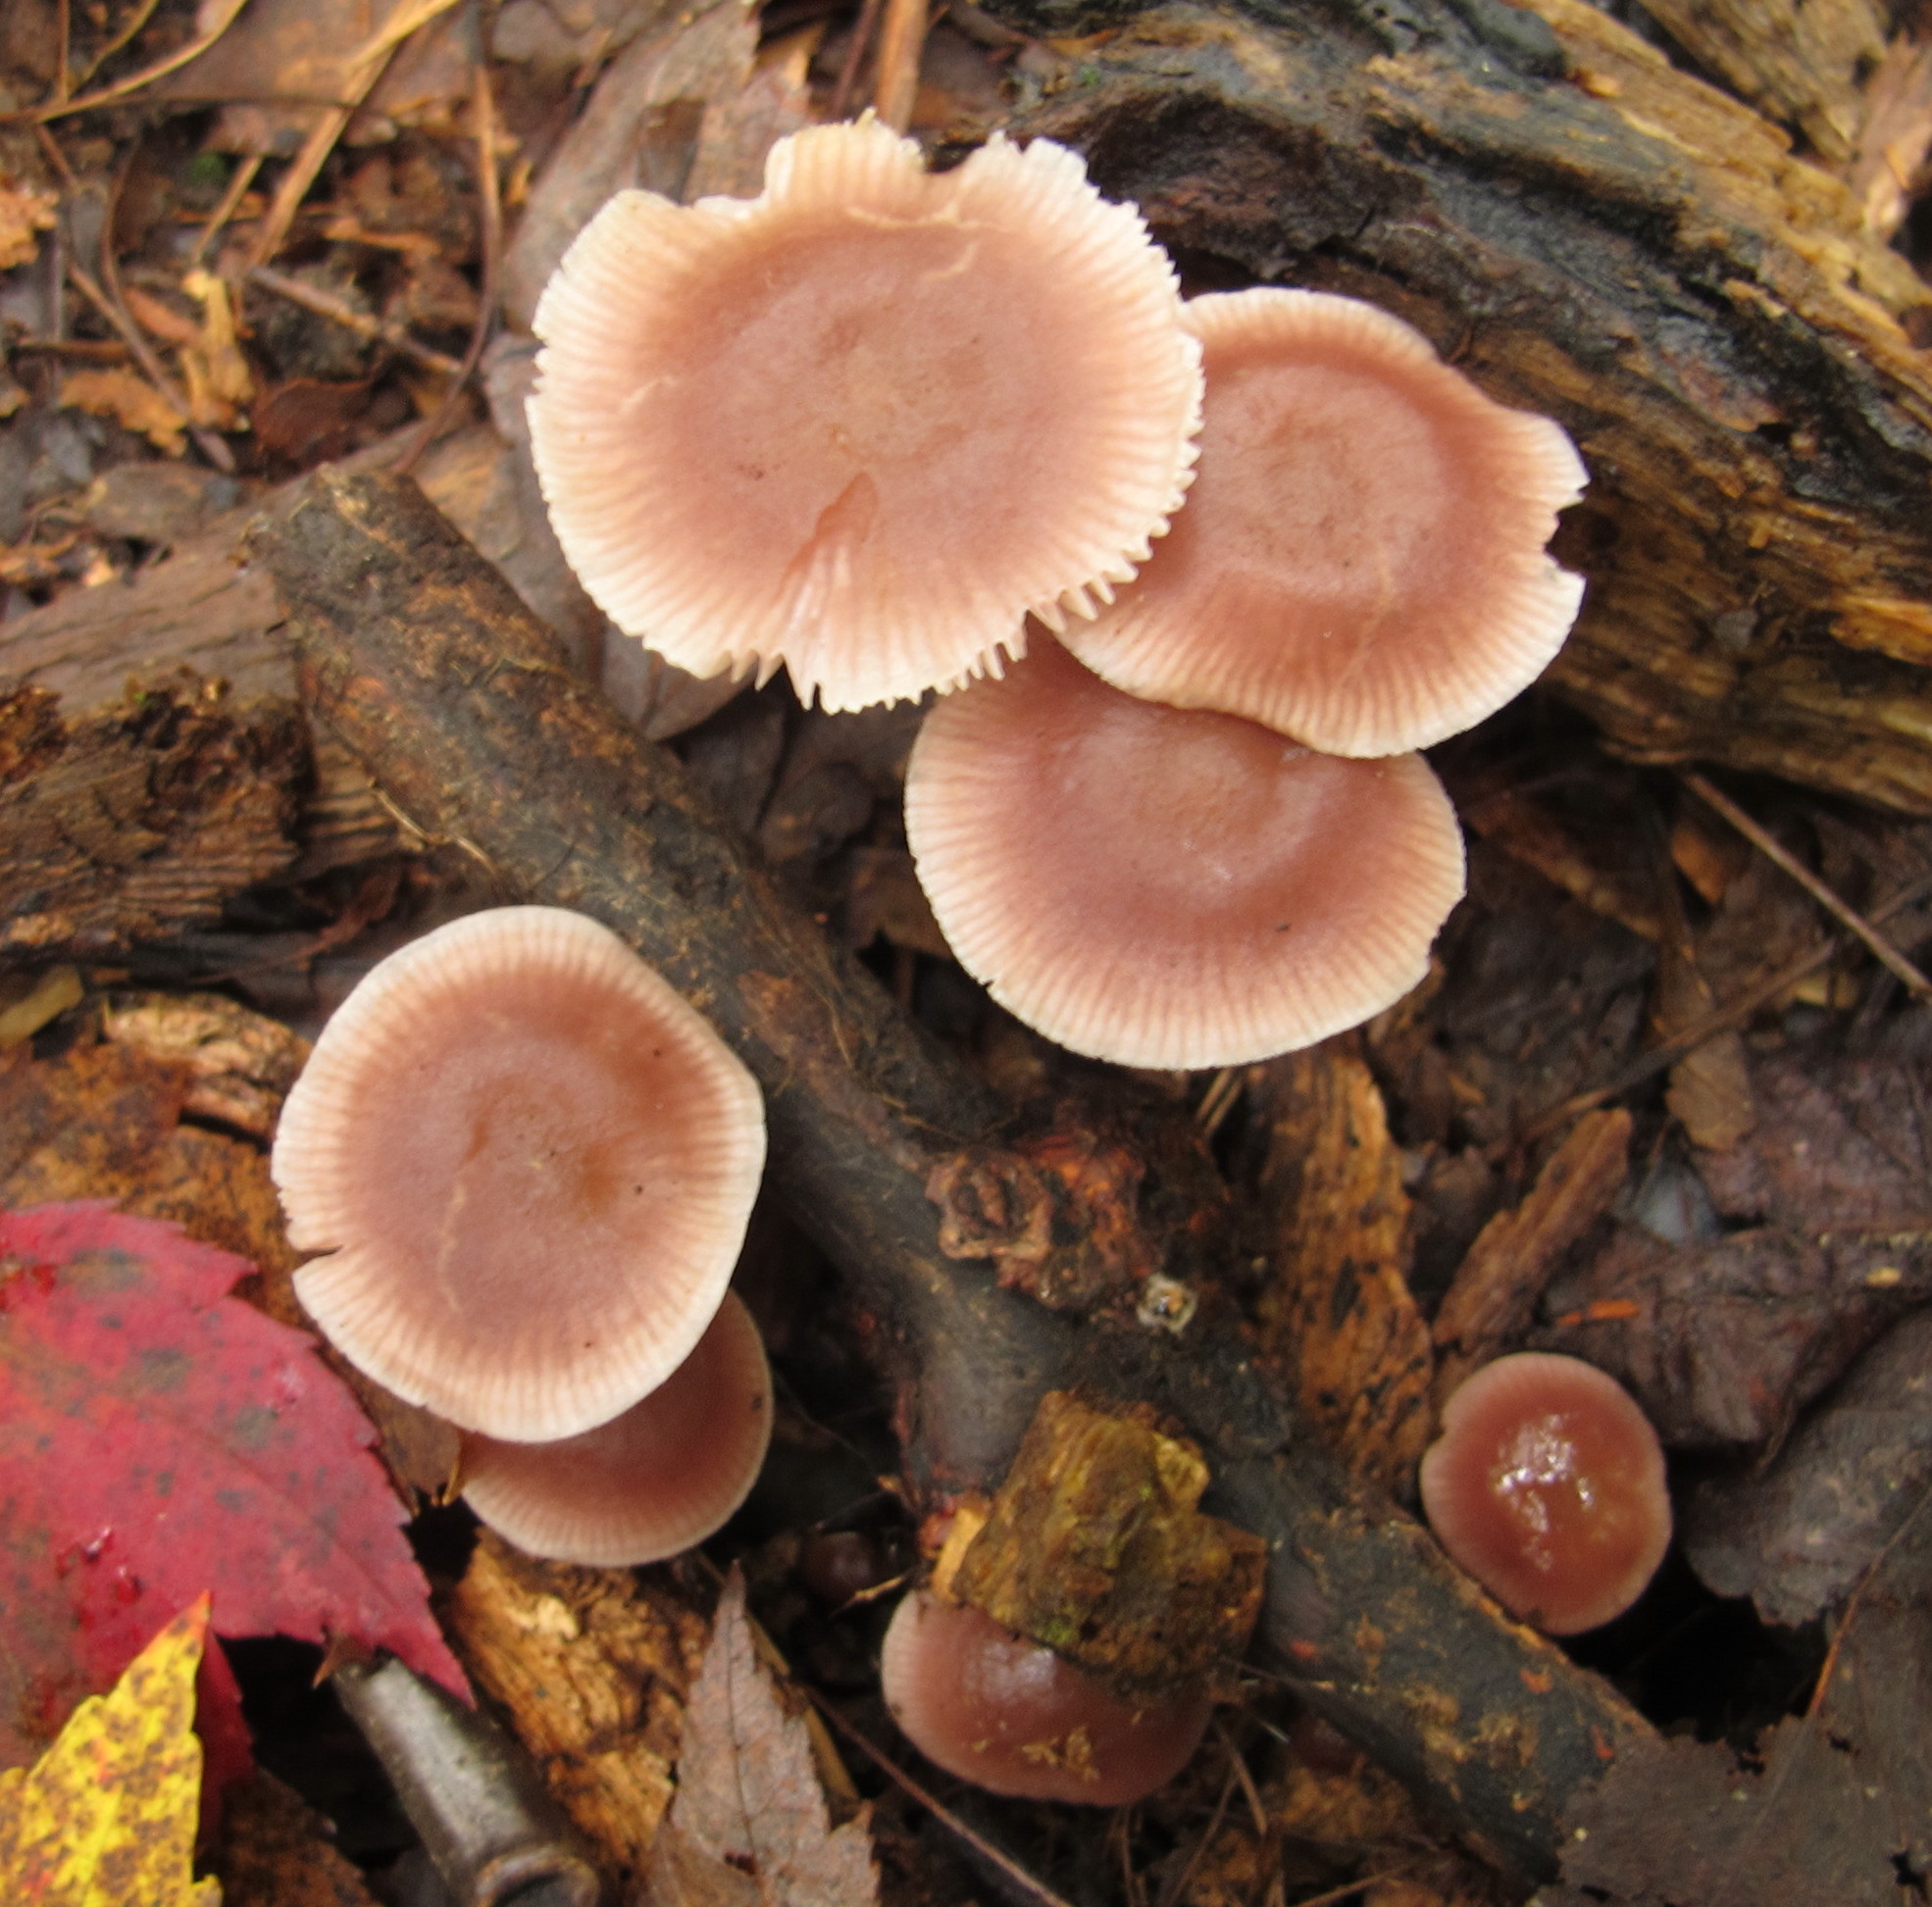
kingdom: Fungi
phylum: Basidiomycota
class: Agaricomycetes
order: Agaricales
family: Mycenaceae
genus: Mycena
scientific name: Mycena pura
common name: Lilac bonnet
